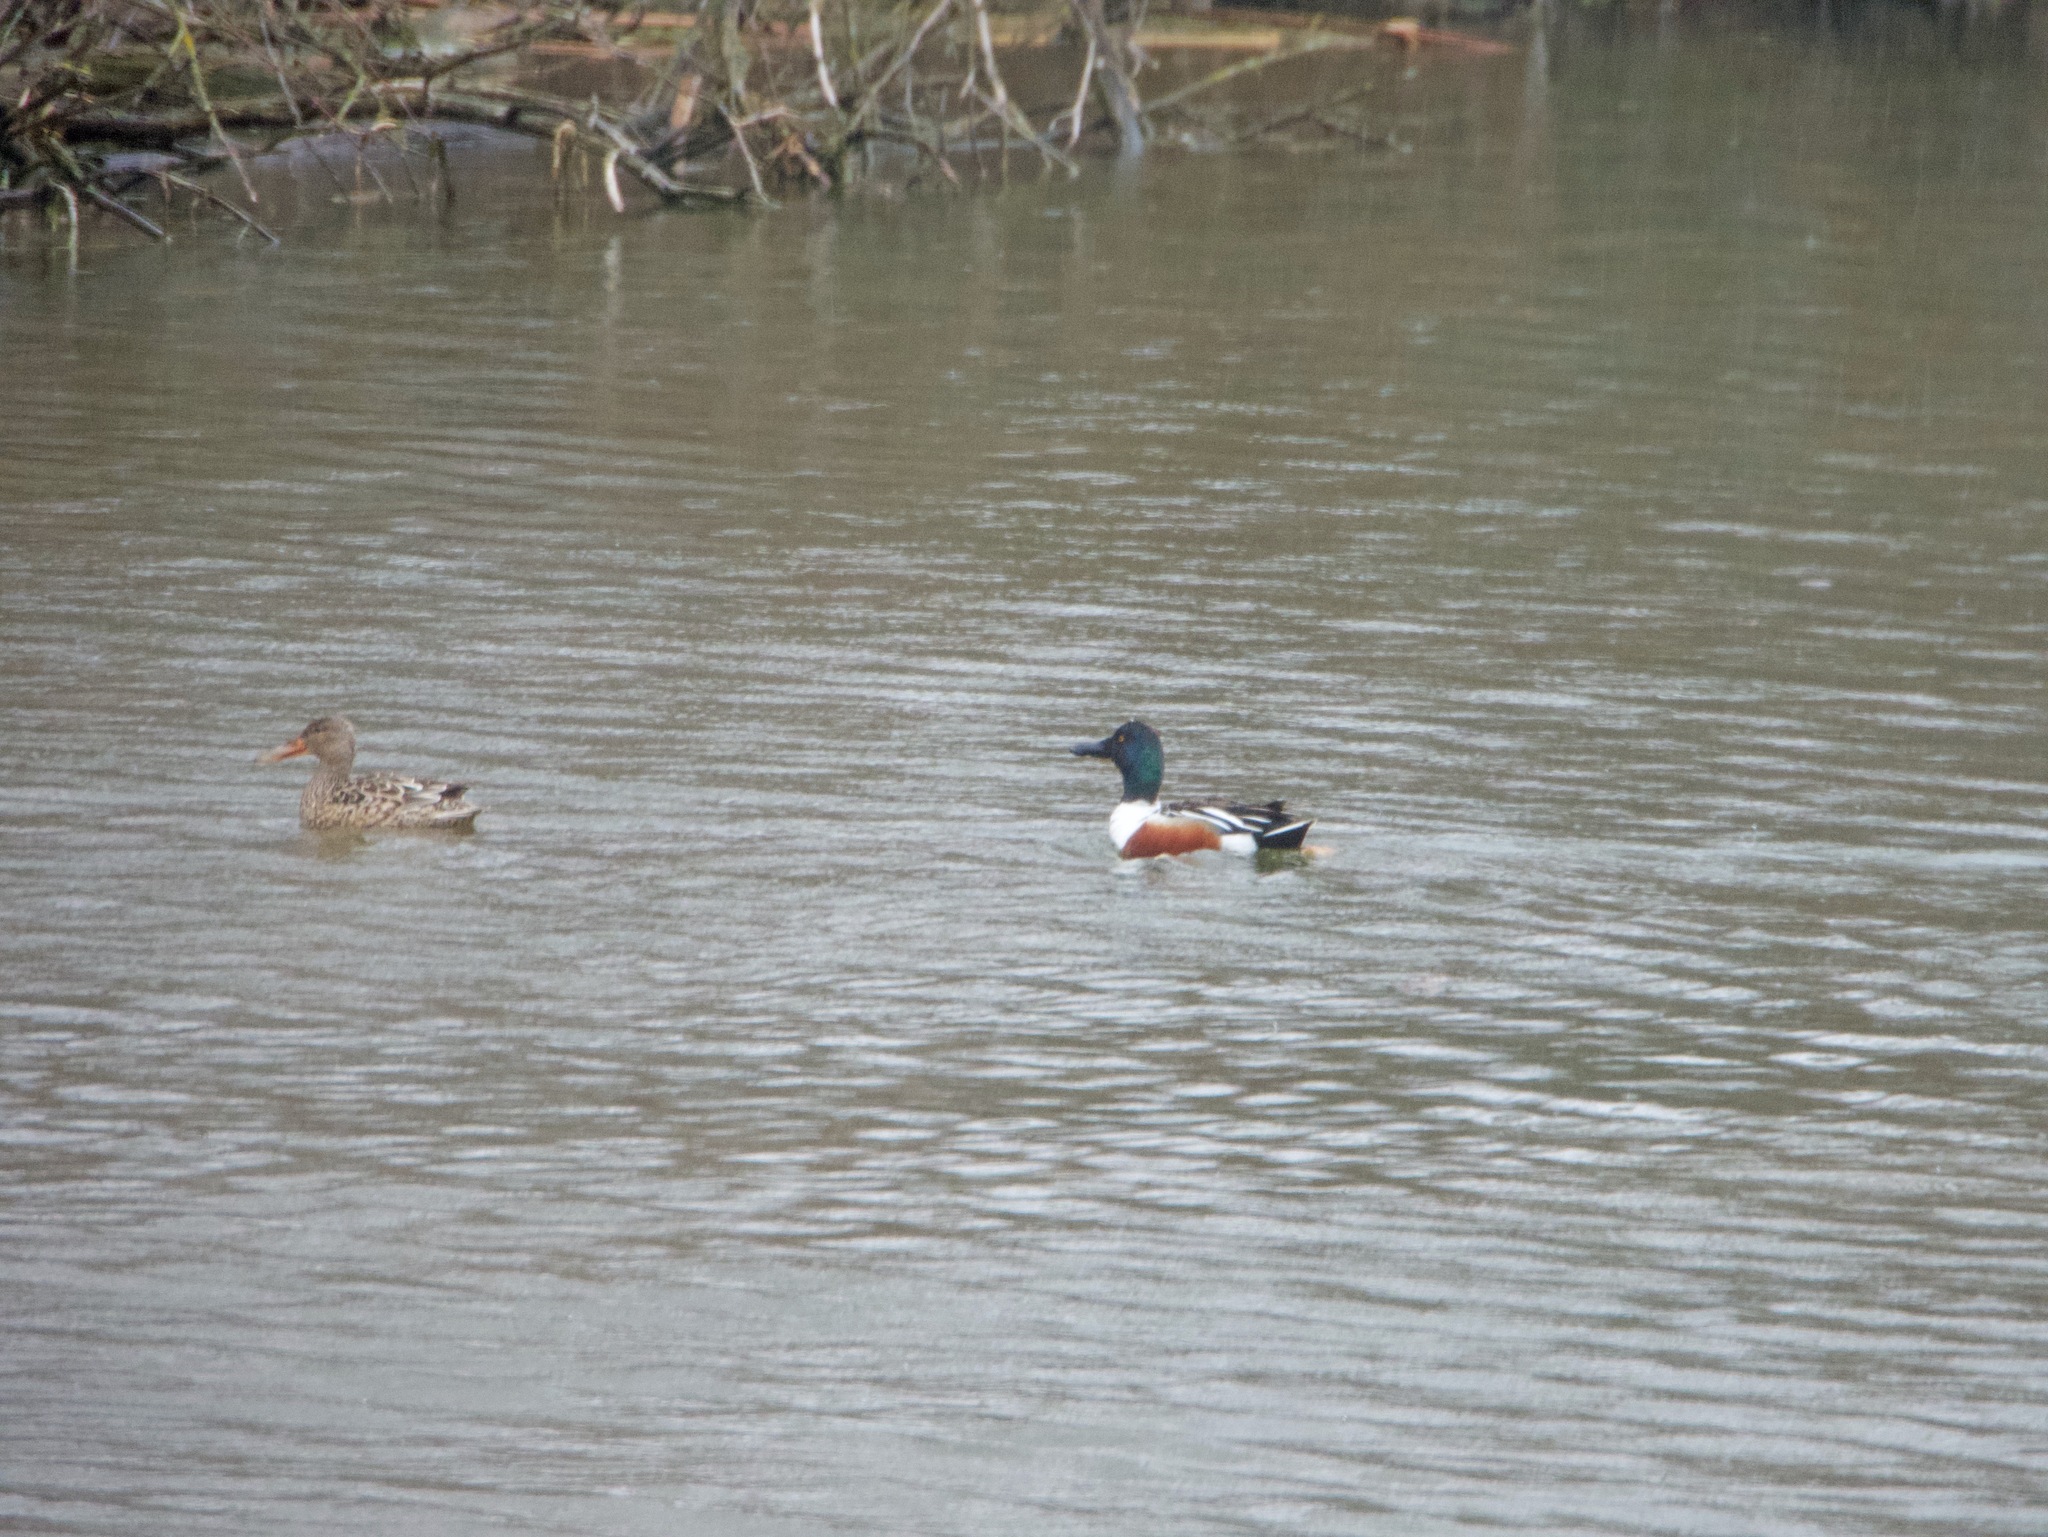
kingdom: Animalia
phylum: Chordata
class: Aves
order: Anseriformes
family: Anatidae
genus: Spatula
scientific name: Spatula clypeata
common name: Northern shoveler
